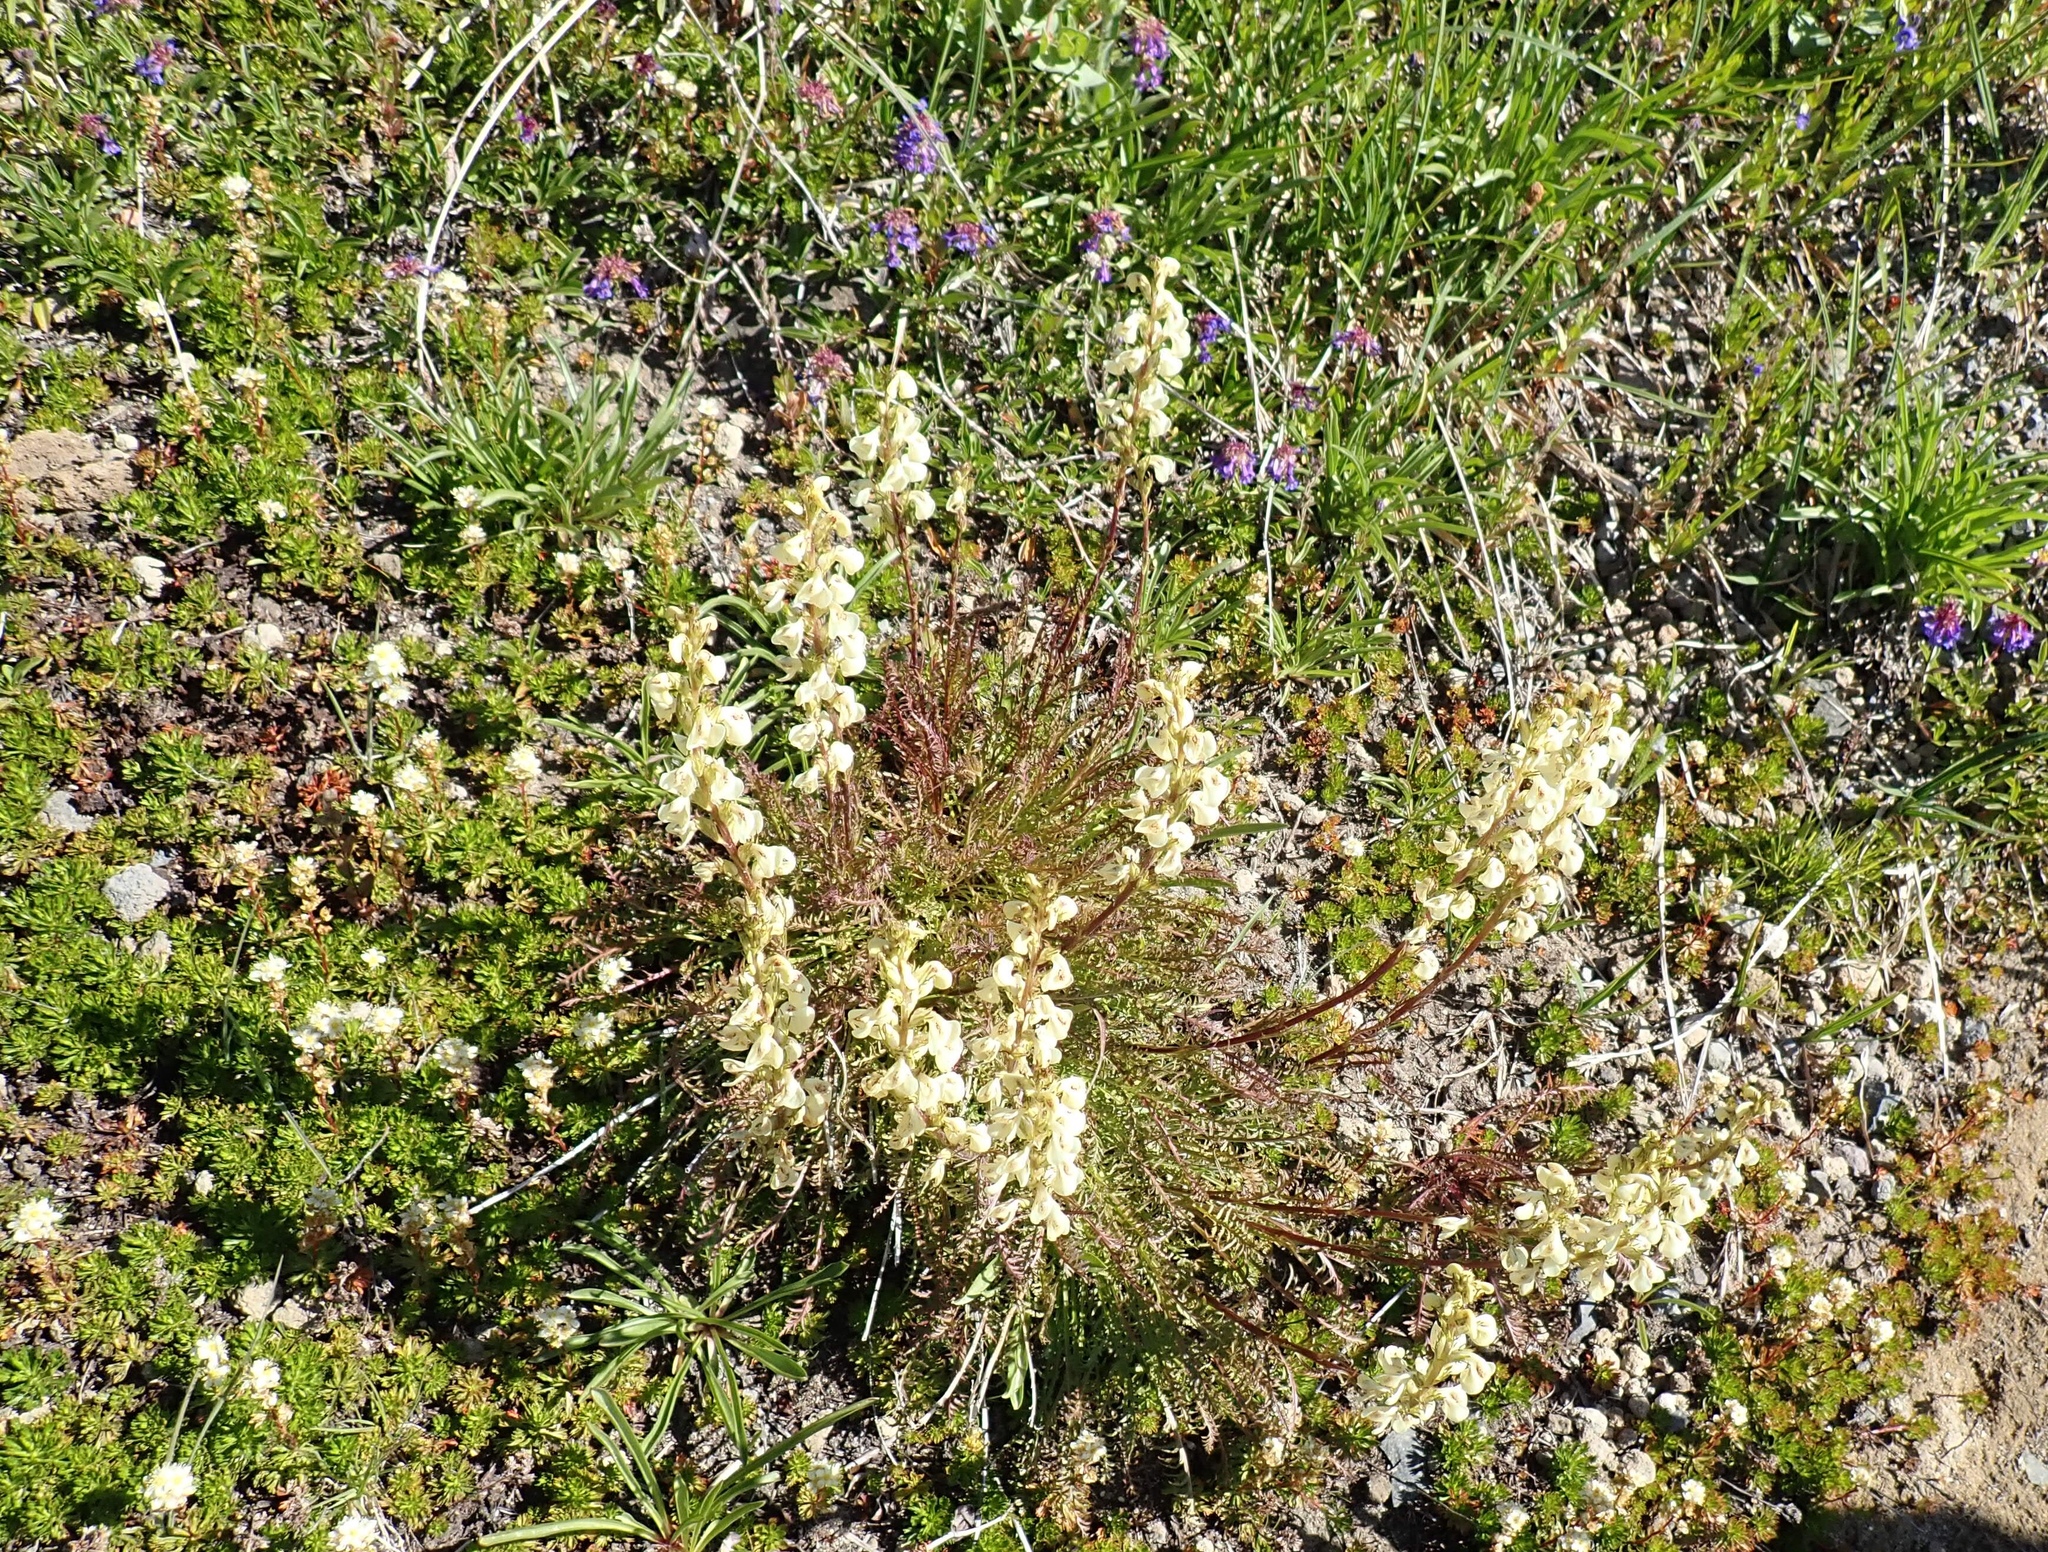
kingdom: Plantae
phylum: Tracheophyta
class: Magnoliopsida
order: Lamiales
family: Orobanchaceae
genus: Pedicularis
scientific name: Pedicularis contorta
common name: Coiled lousewort
